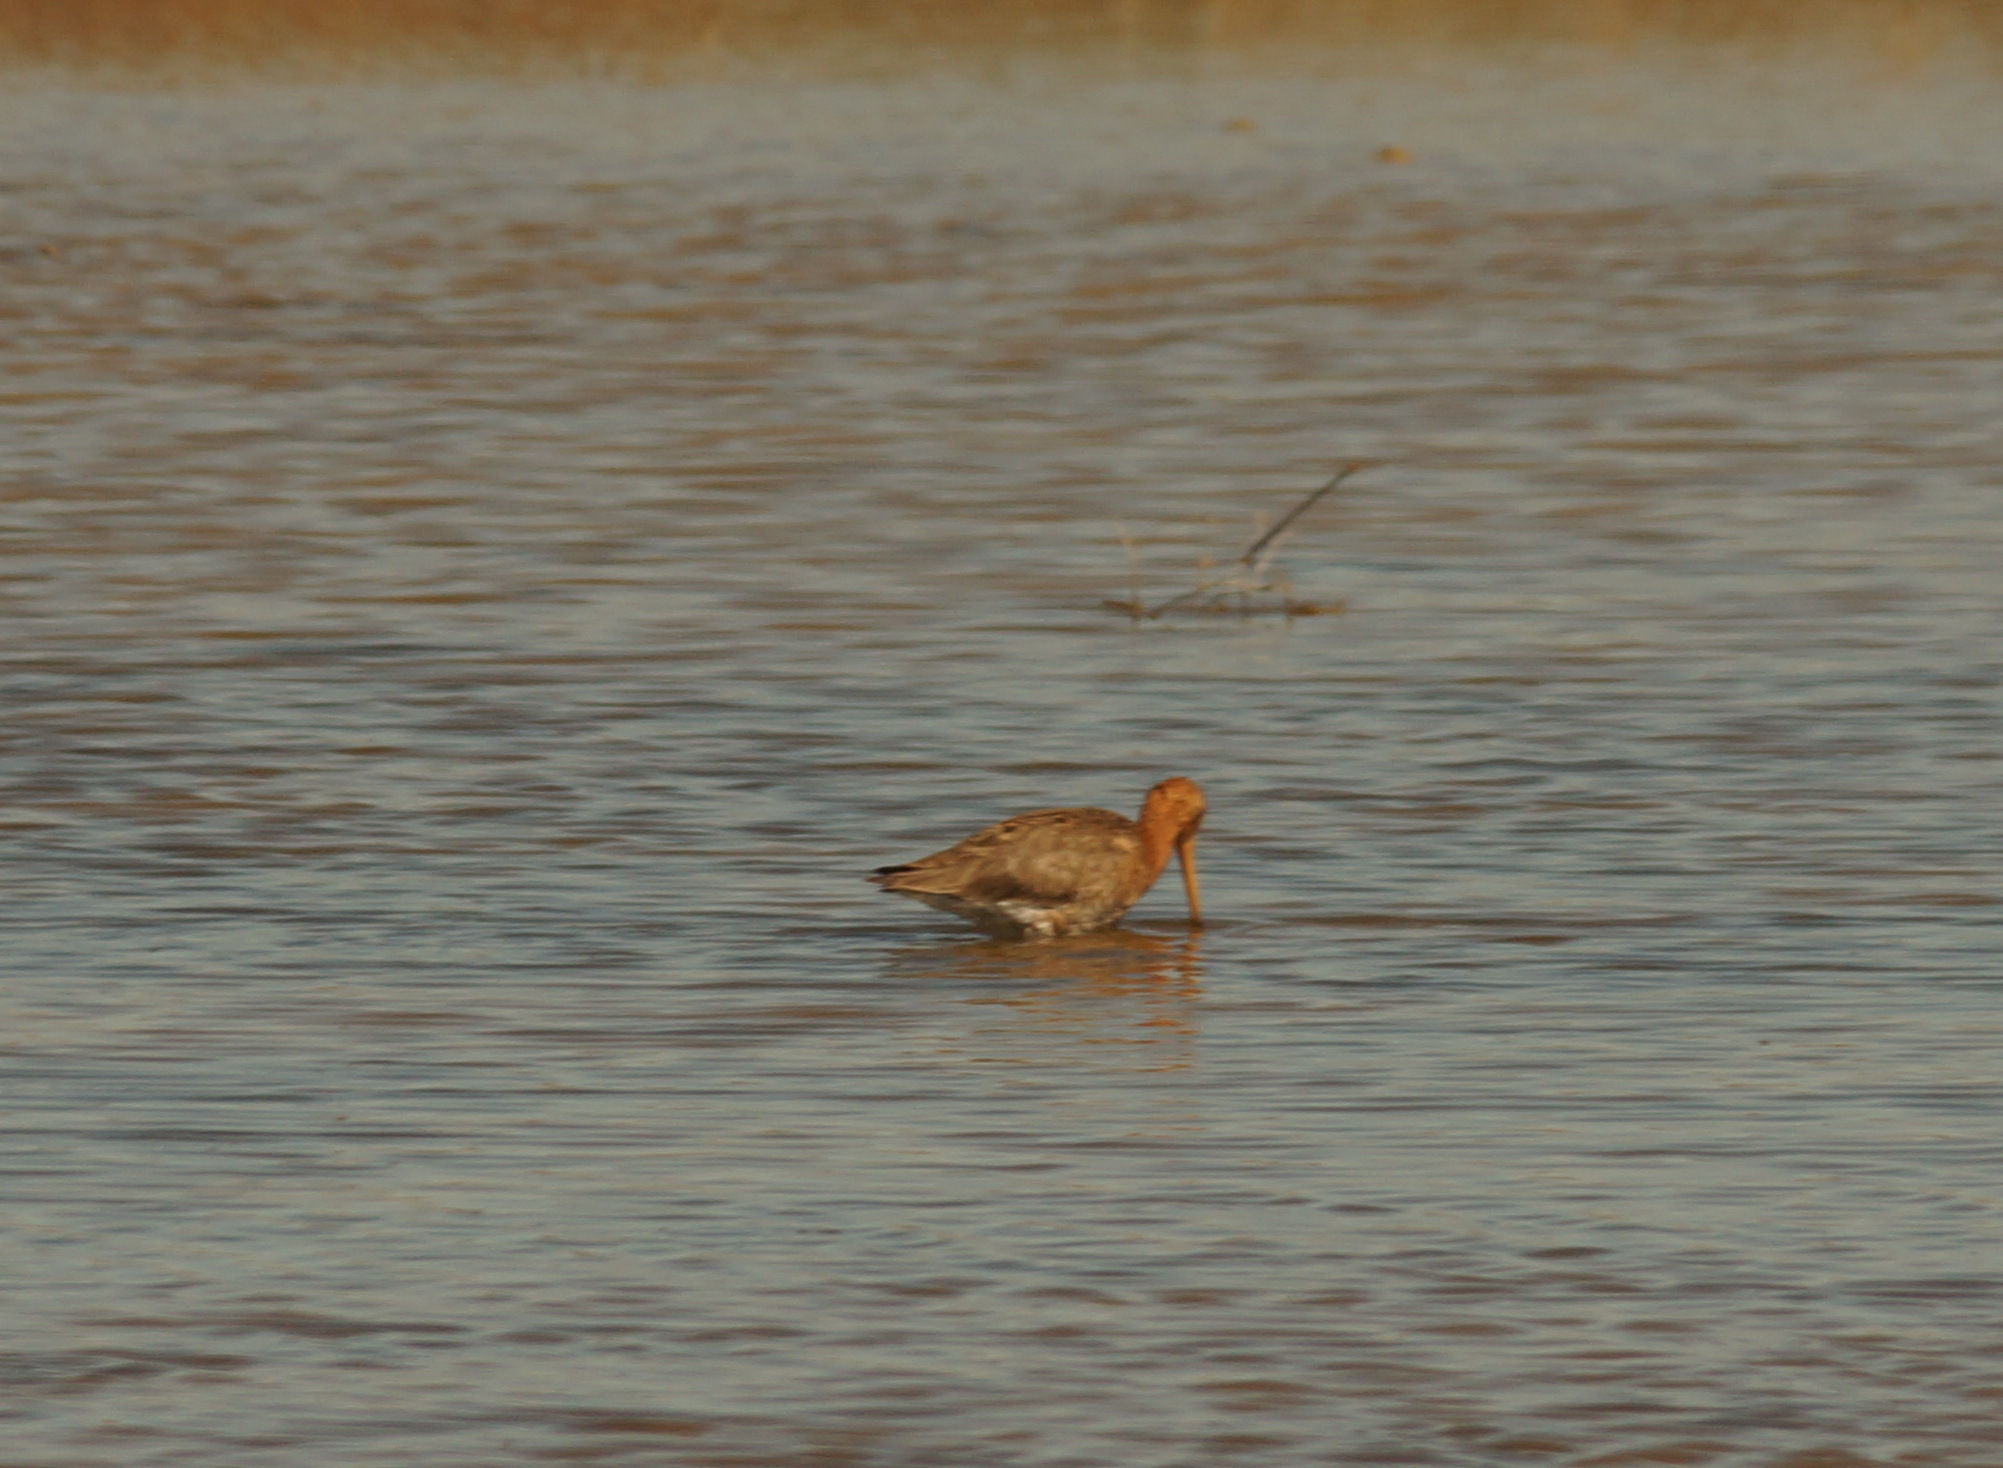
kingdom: Animalia
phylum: Chordata
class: Aves
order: Charadriiformes
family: Scolopacidae
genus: Limosa
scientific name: Limosa limosa
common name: Black-tailed godwit
